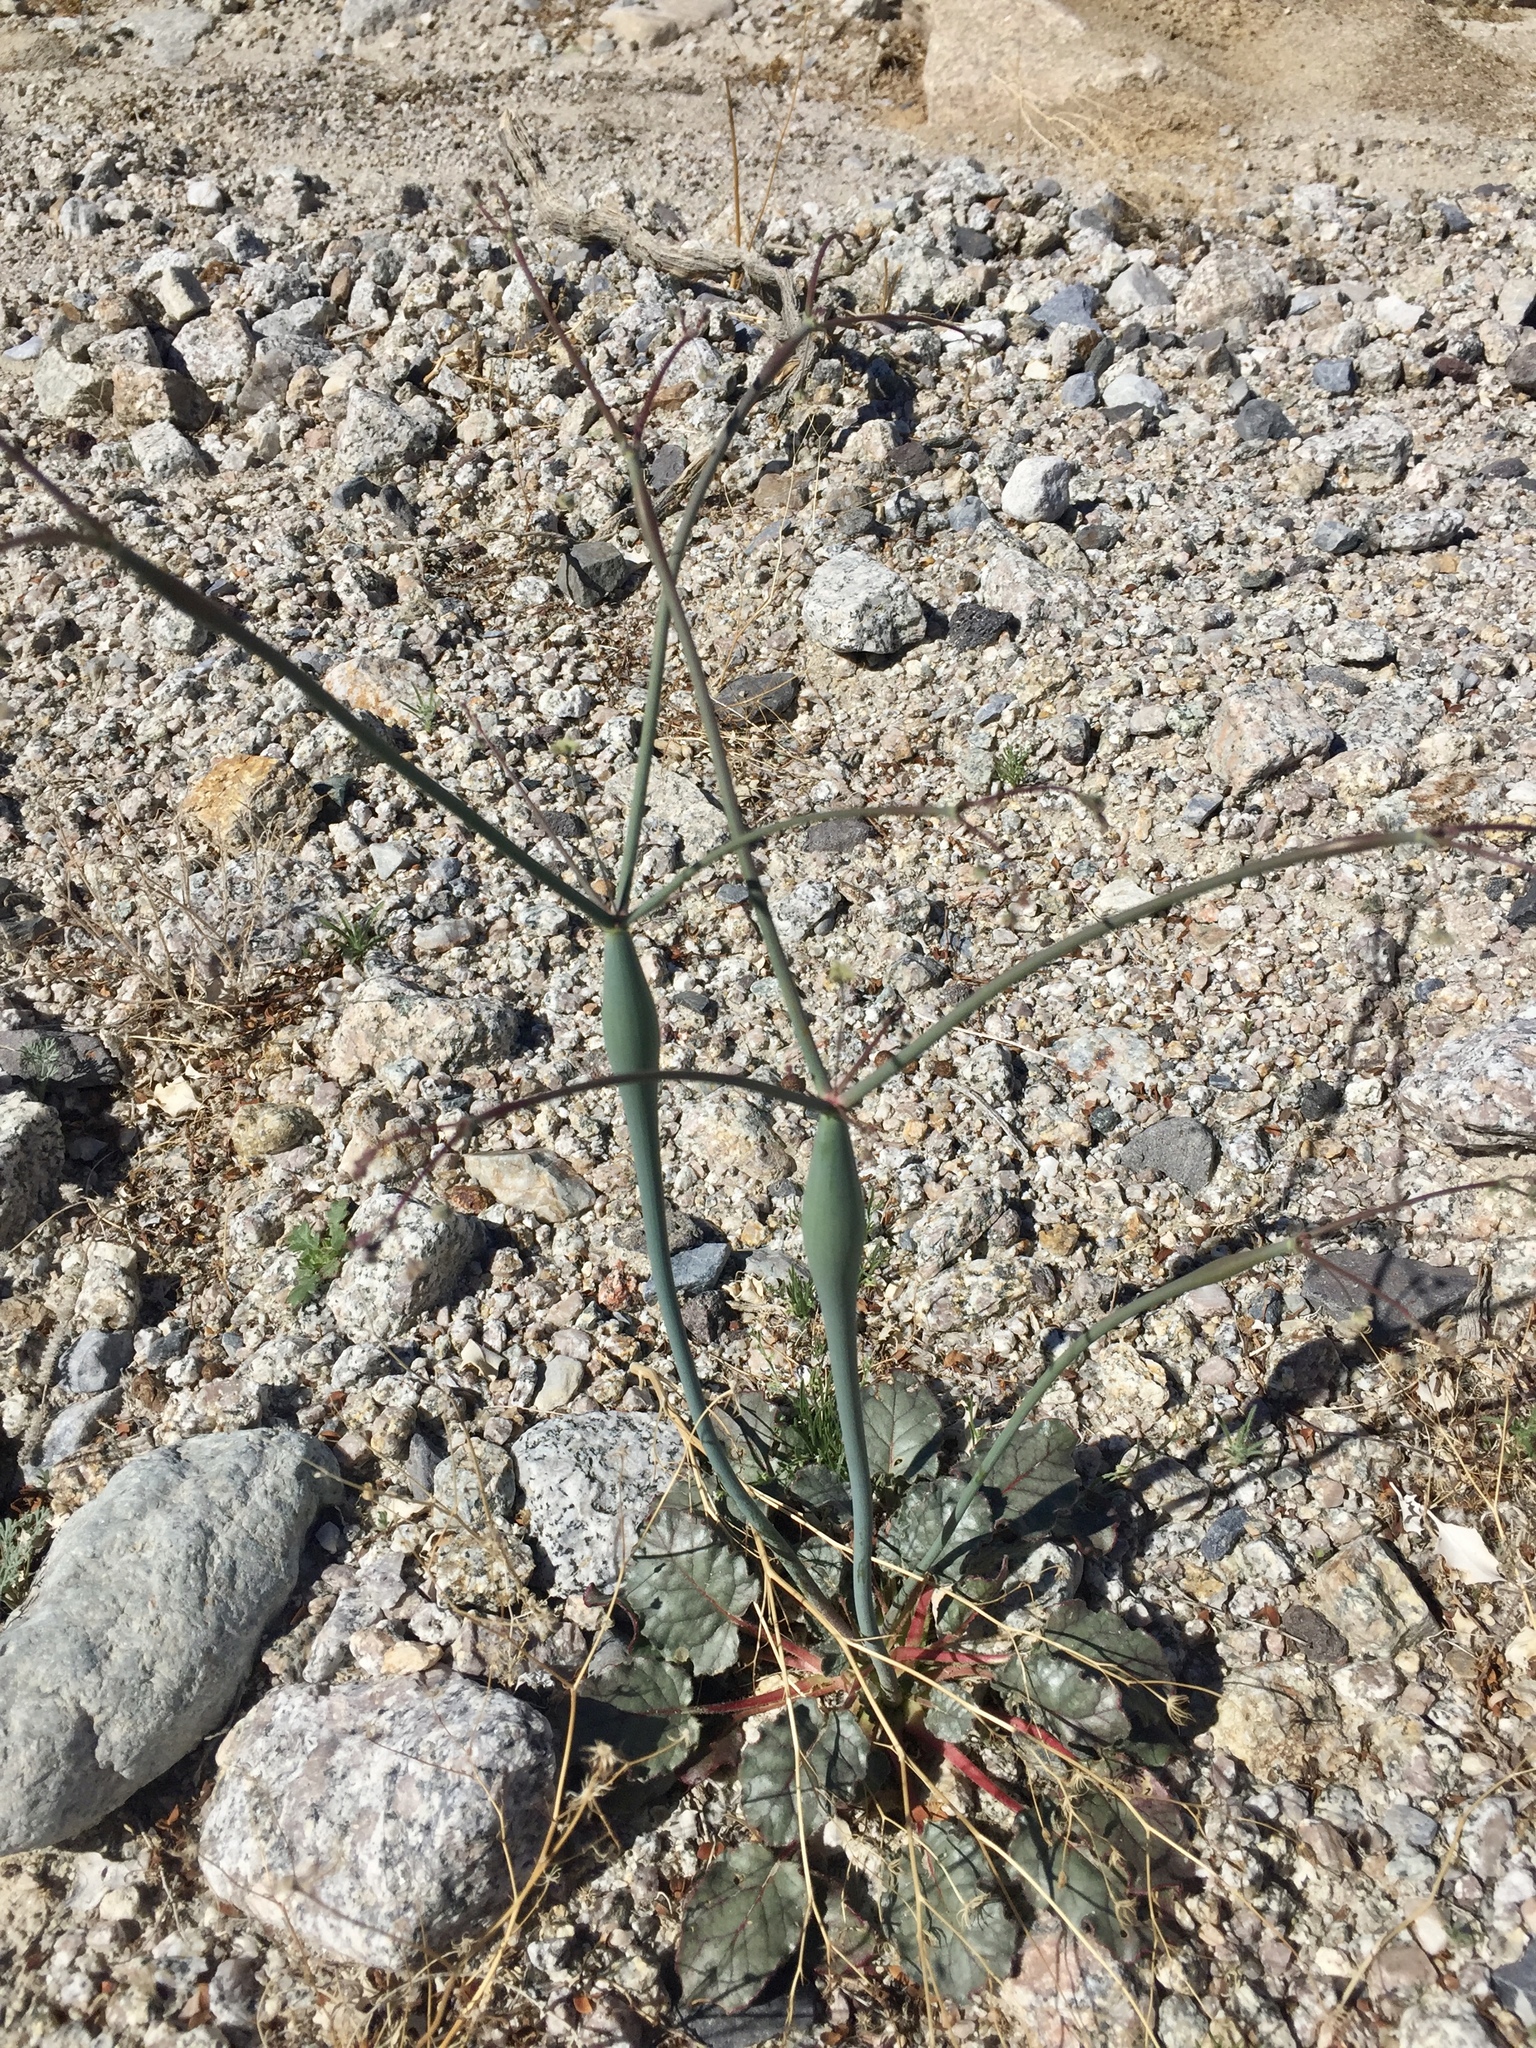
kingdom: Plantae
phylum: Tracheophyta
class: Magnoliopsida
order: Caryophyllales
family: Polygonaceae
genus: Eriogonum
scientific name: Eriogonum inflatum
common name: Desert trumpet
